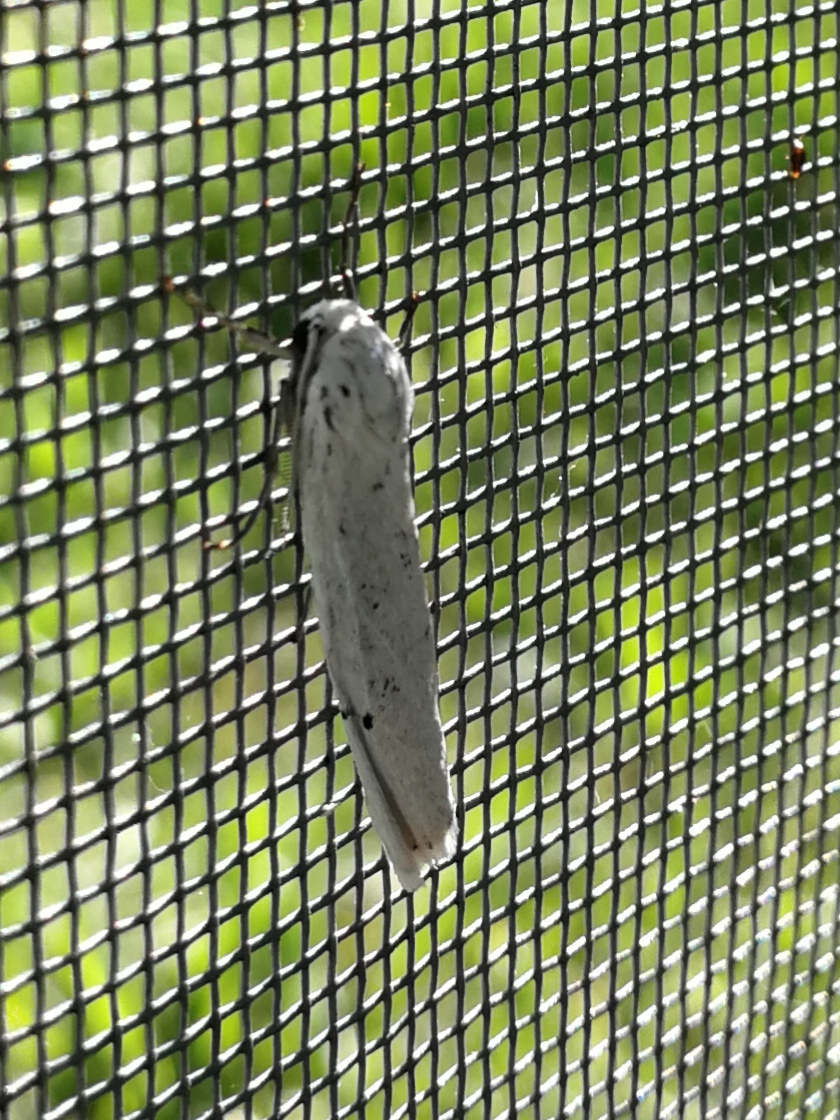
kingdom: Animalia
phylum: Arthropoda
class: Insecta
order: Lepidoptera
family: Erebidae
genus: Coscinia
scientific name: Coscinia cribraria
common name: Speckled footman
